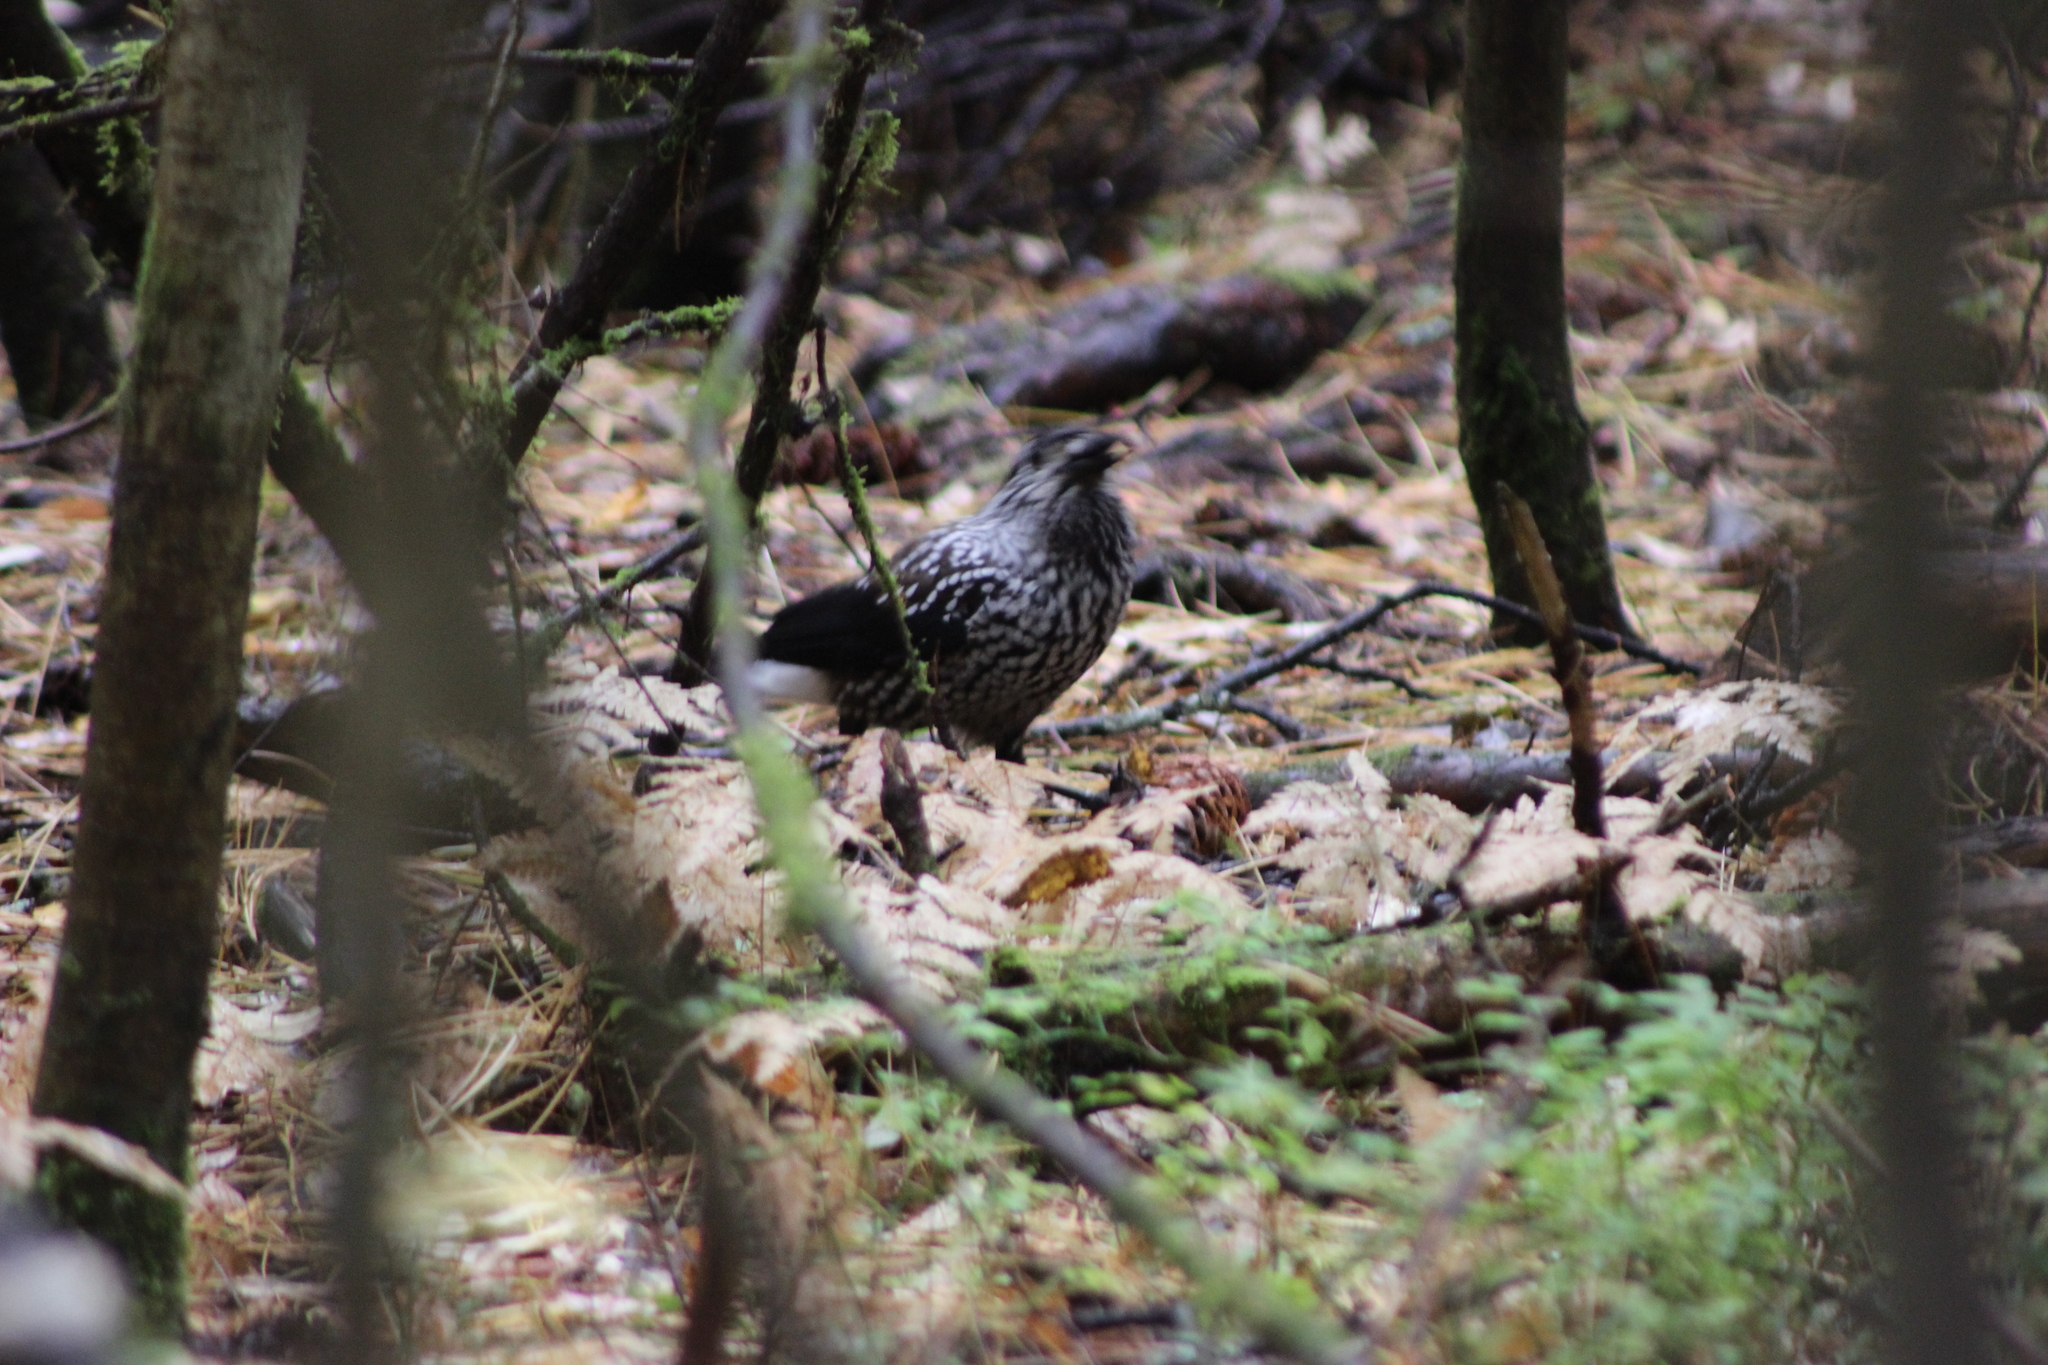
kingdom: Animalia
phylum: Chordata
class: Aves
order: Passeriformes
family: Corvidae
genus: Nucifraga
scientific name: Nucifraga caryocatactes
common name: Spotted nutcracker
